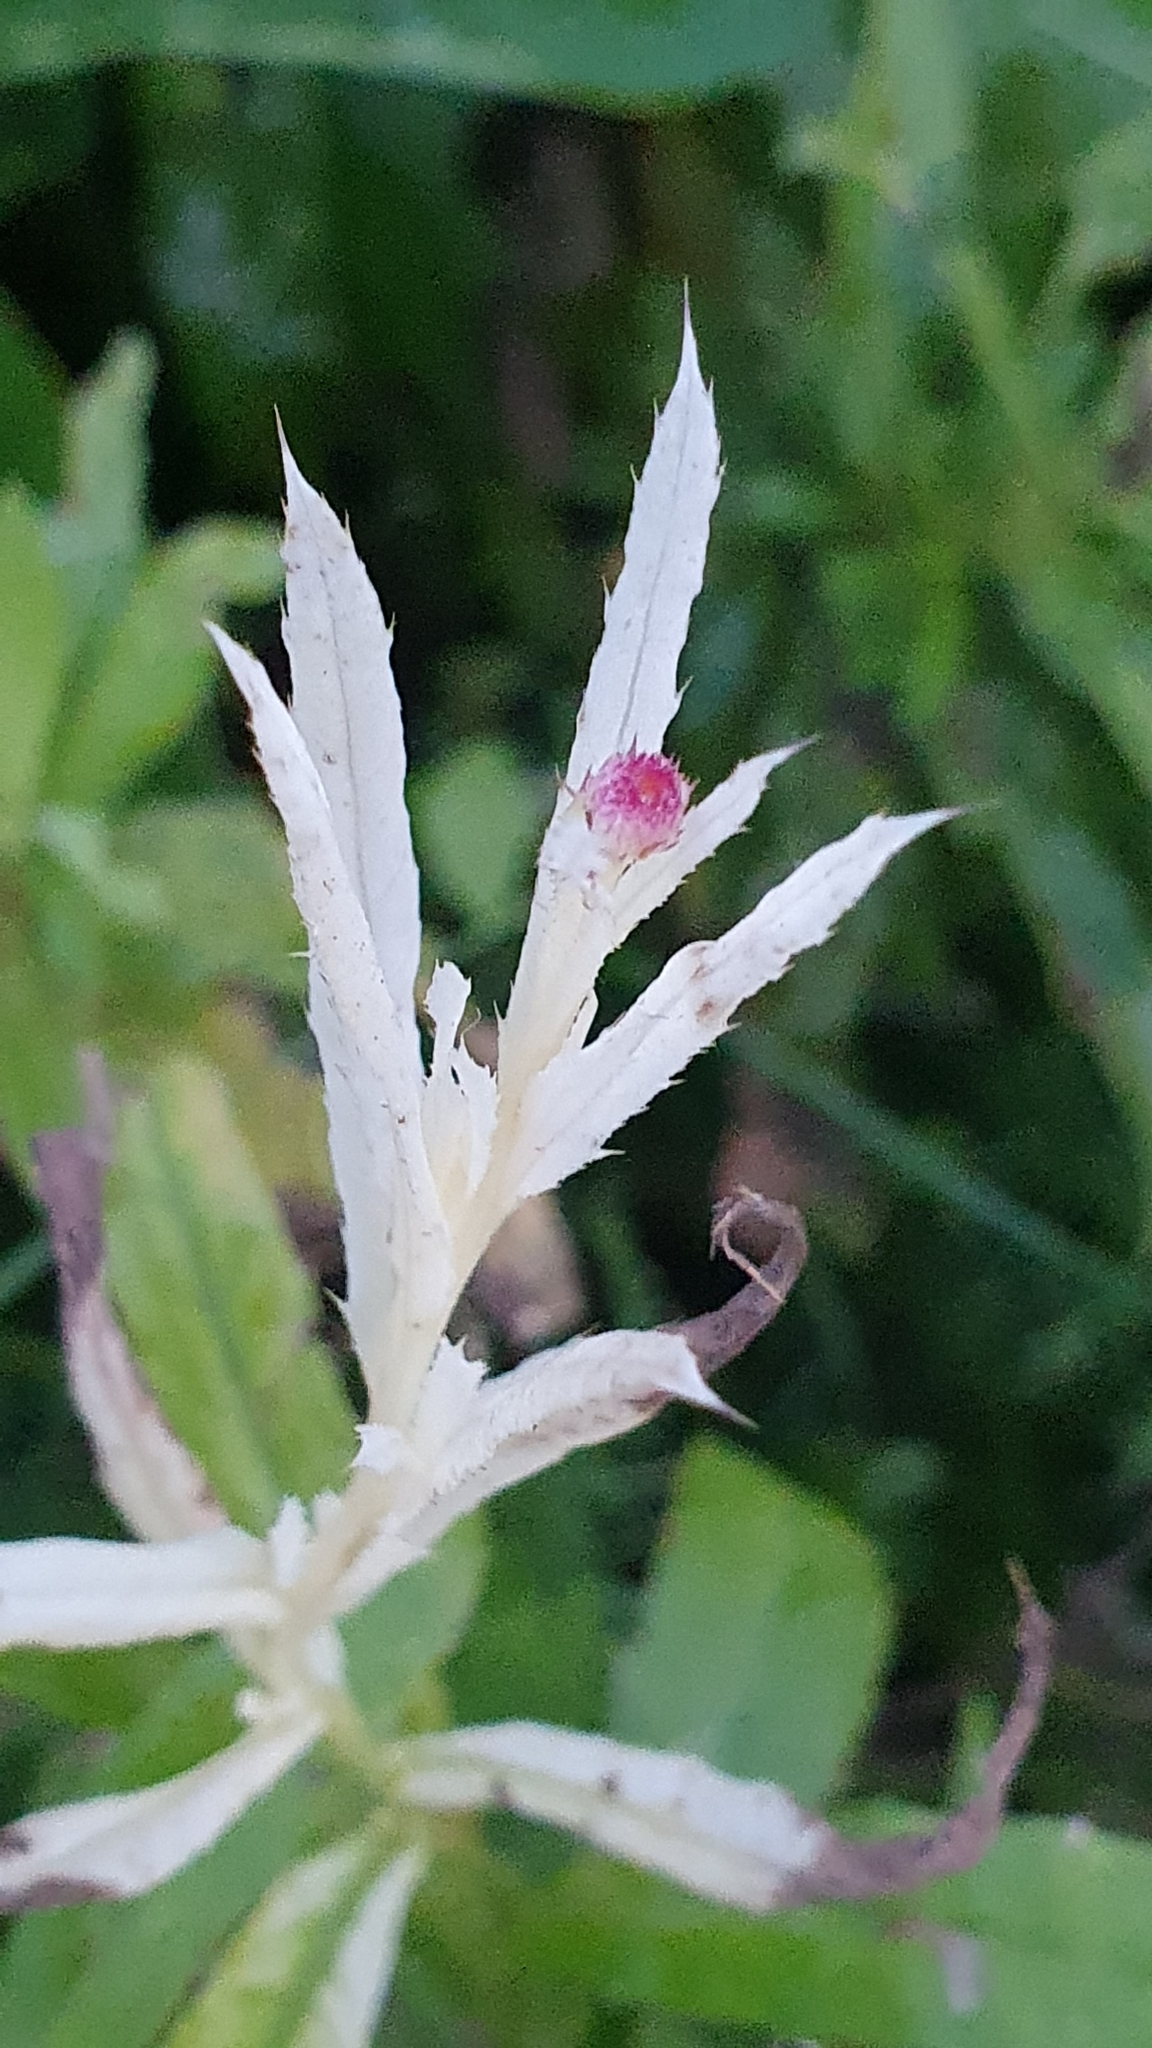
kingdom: Plantae
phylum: Tracheophyta
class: Magnoliopsida
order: Asterales
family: Asteraceae
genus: Cirsium
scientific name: Cirsium arvense
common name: Creeping thistle
